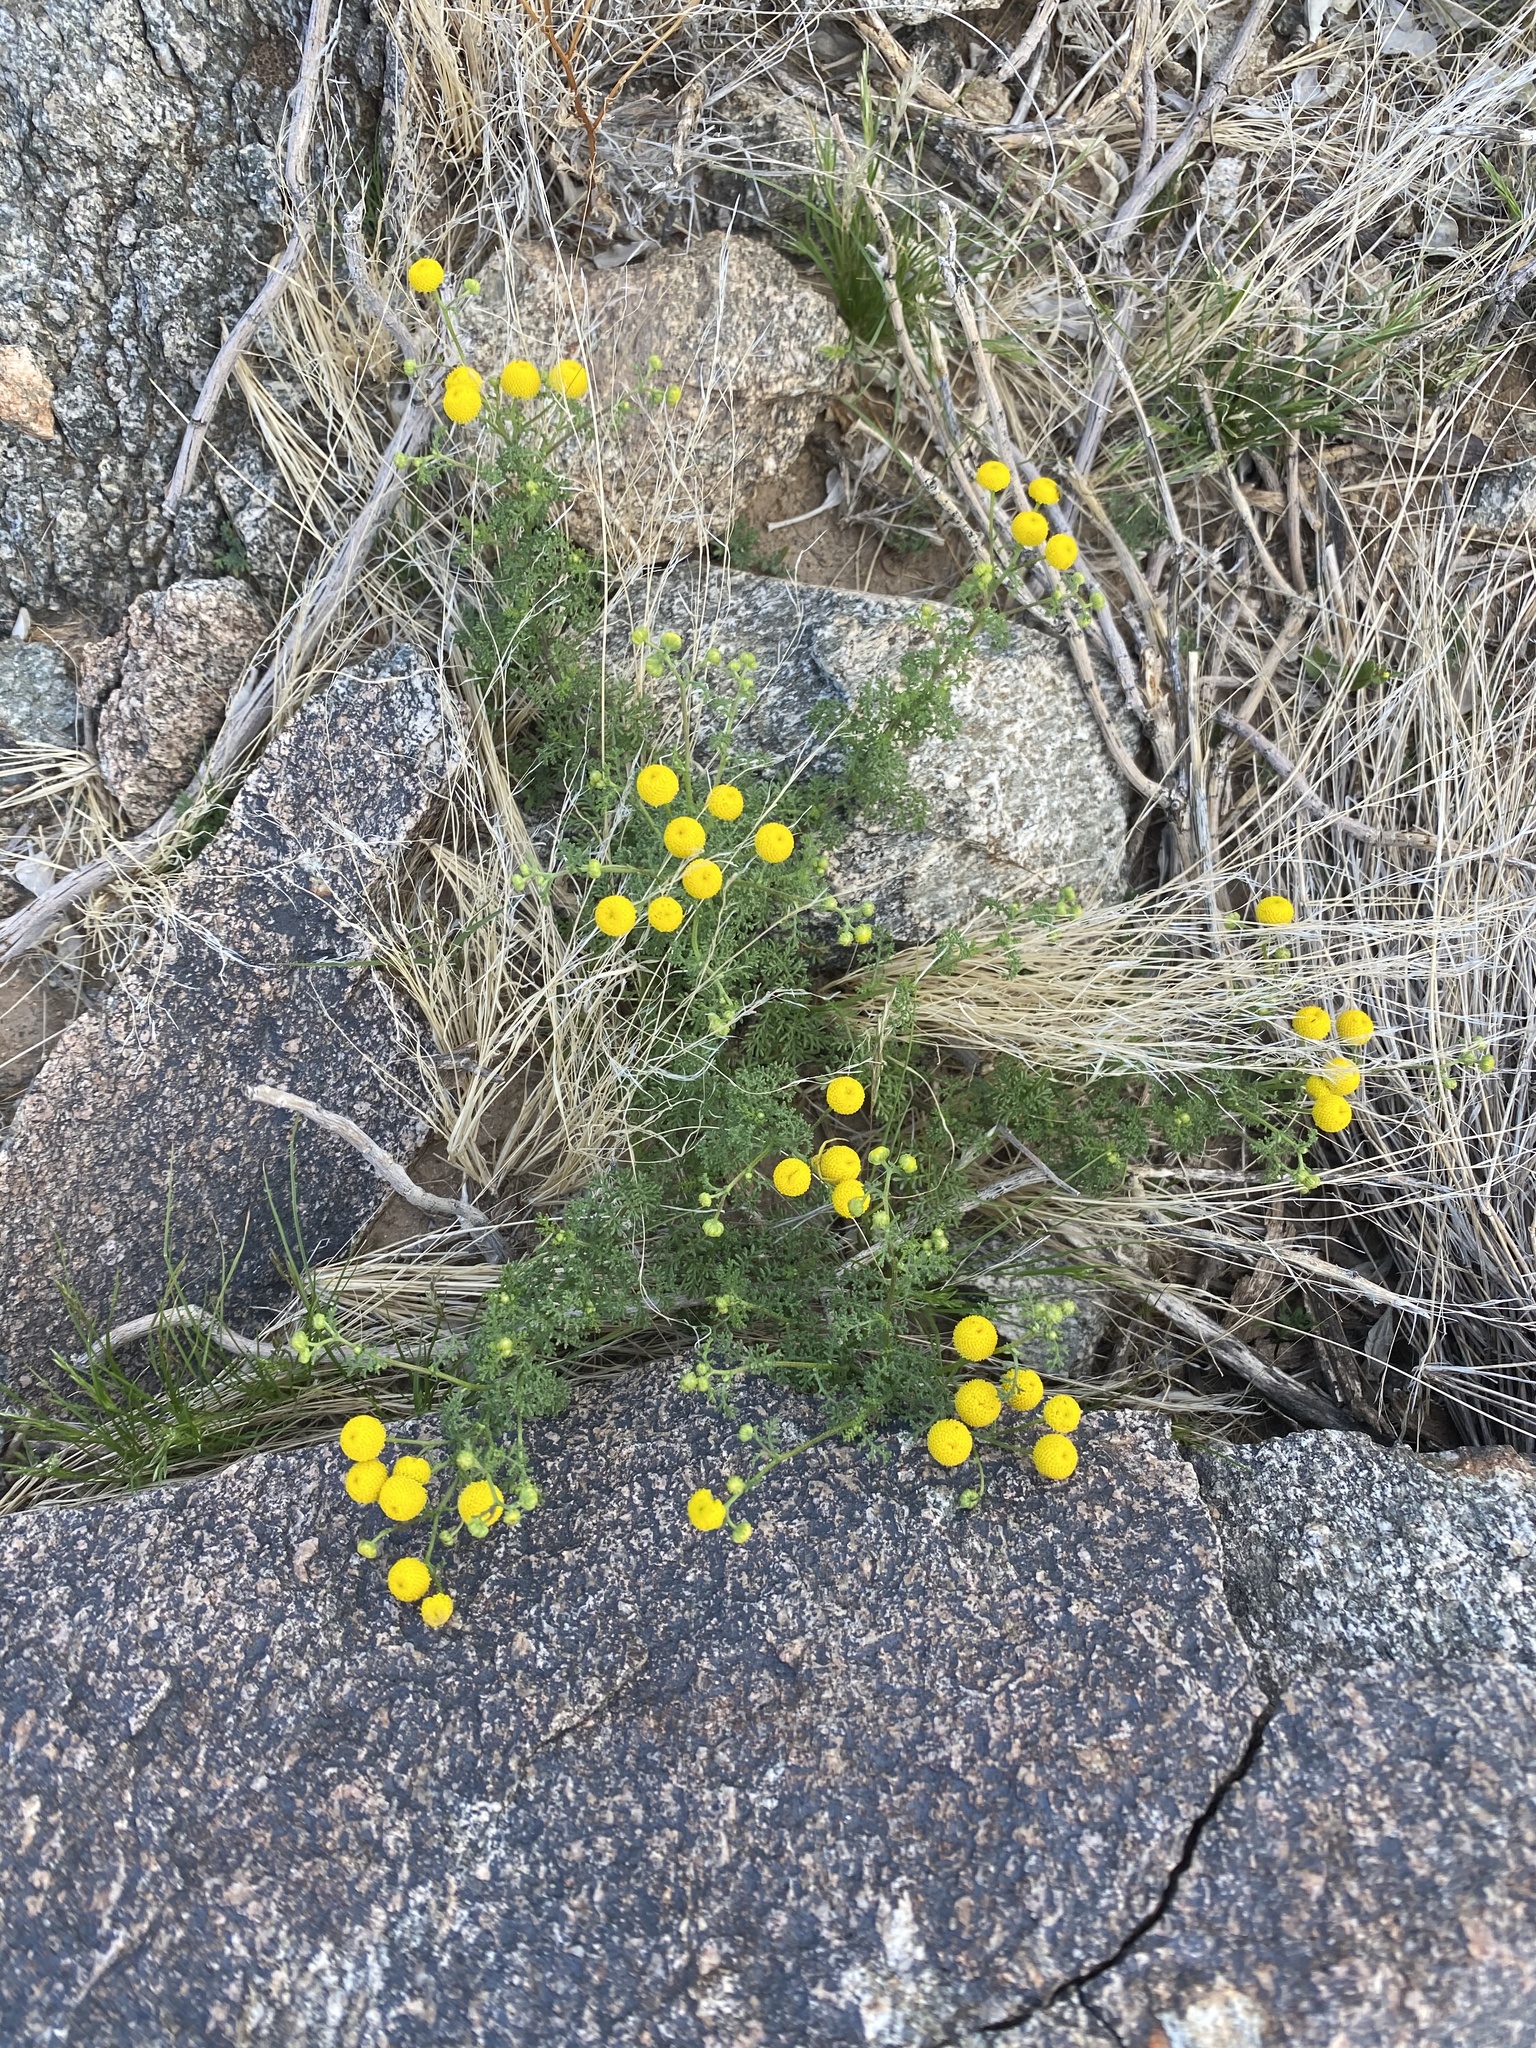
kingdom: Plantae
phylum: Tracheophyta
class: Magnoliopsida
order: Asterales
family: Asteraceae
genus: Oncosiphon
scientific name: Oncosiphon pilulifer
